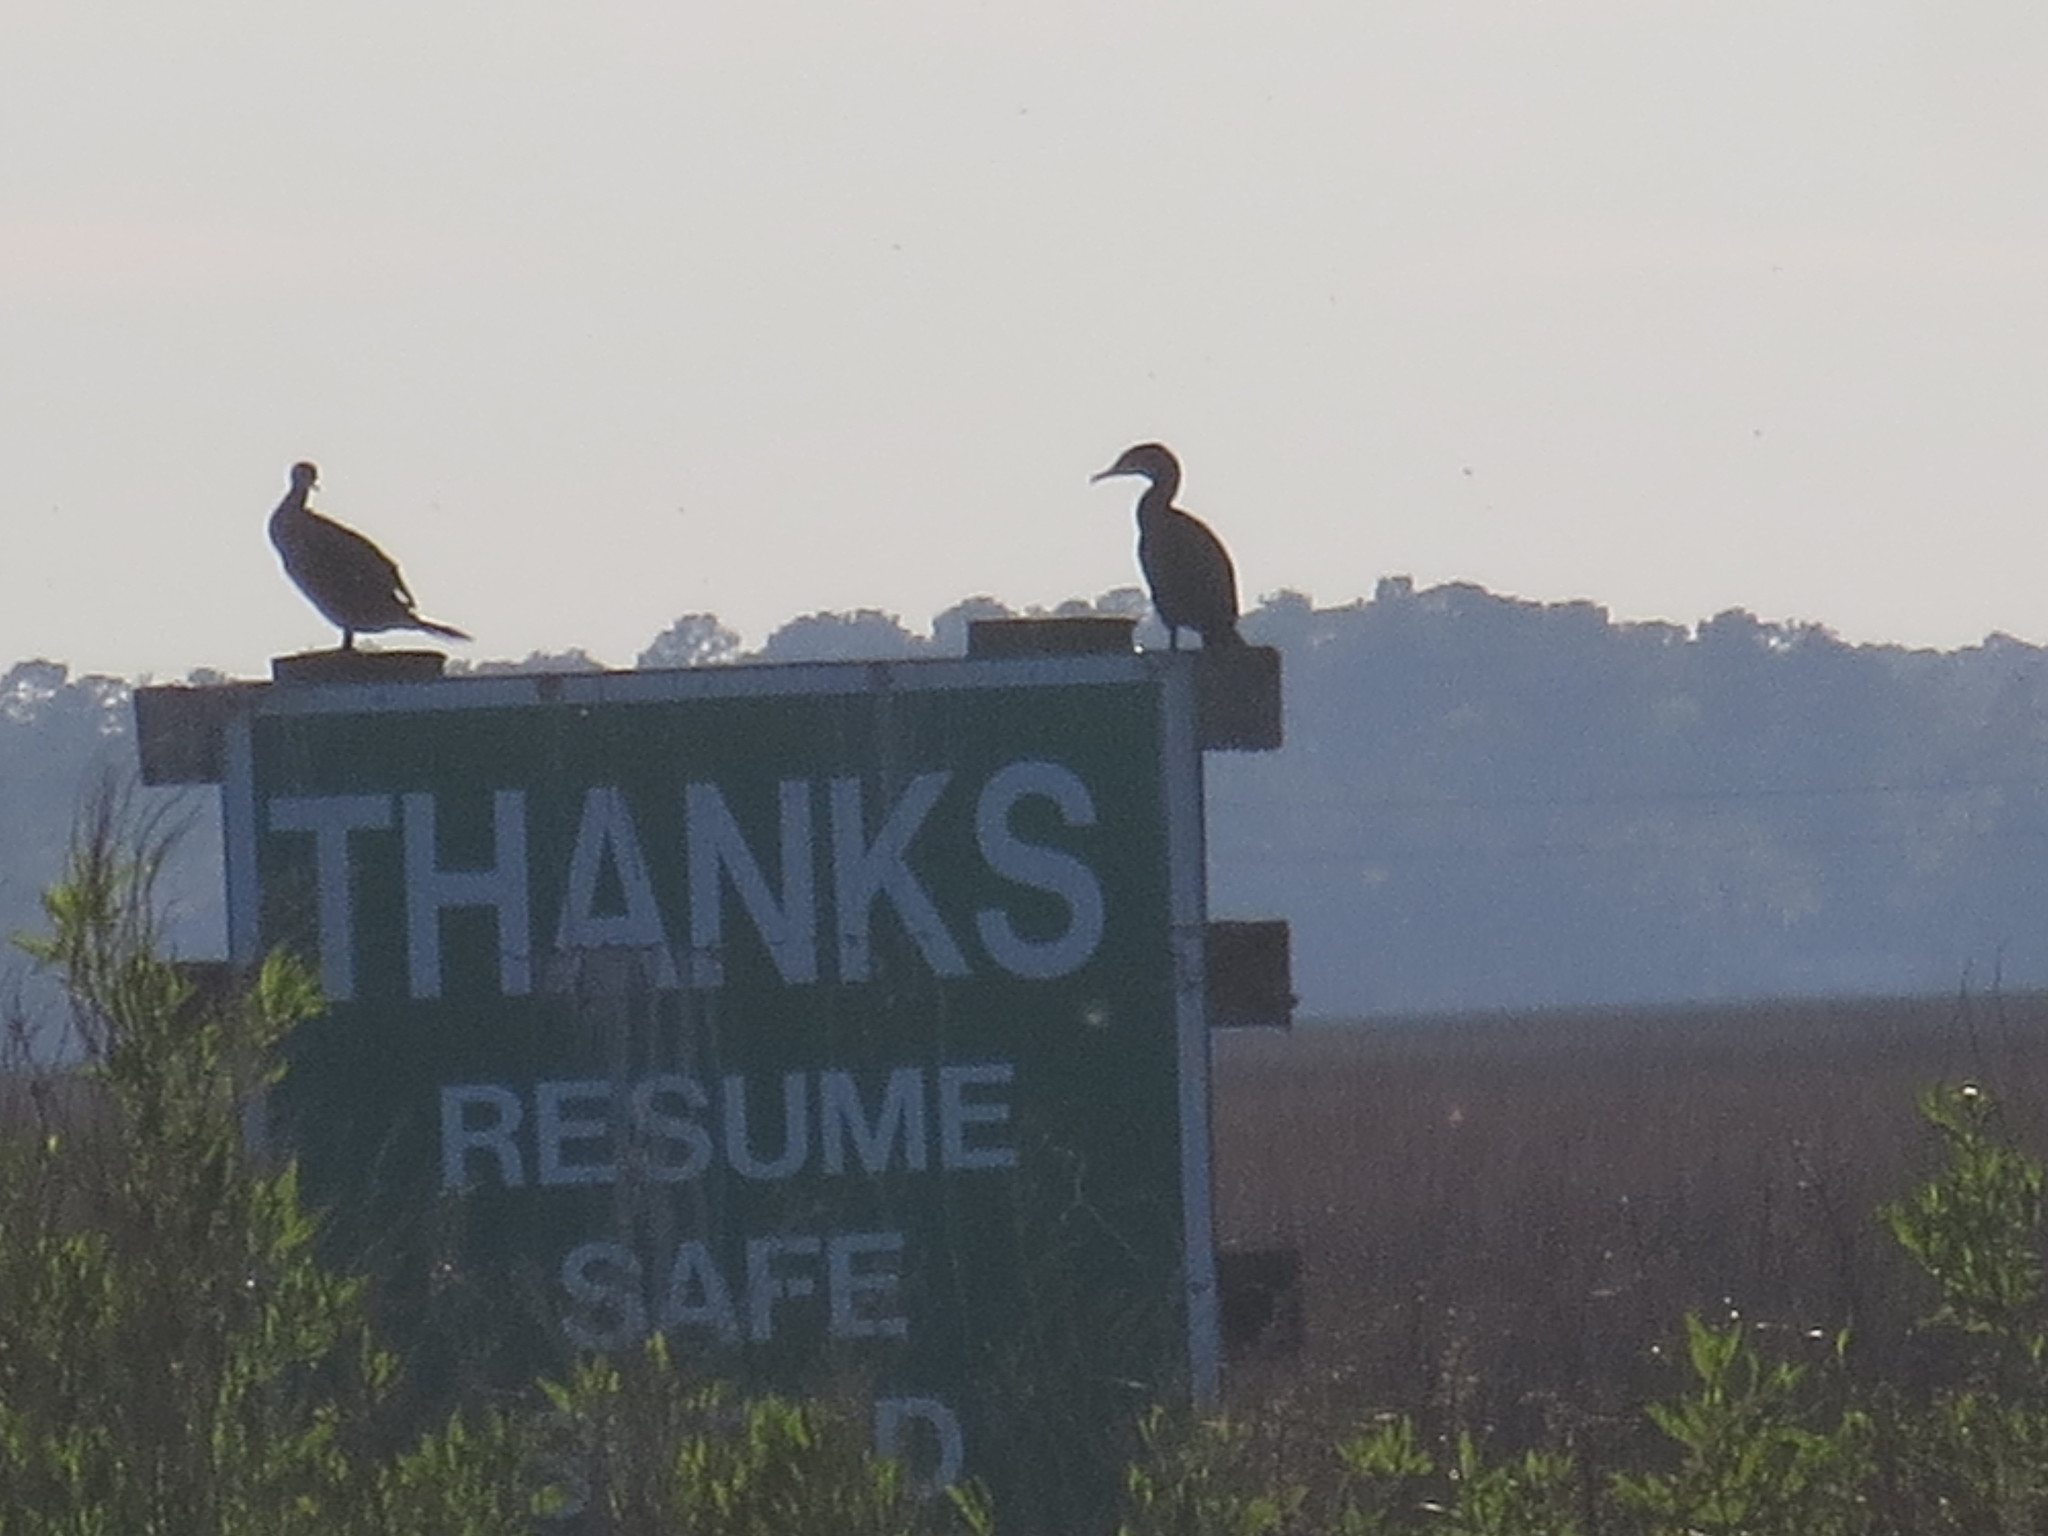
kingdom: Animalia
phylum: Chordata
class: Aves
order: Suliformes
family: Phalacrocoracidae
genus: Phalacrocorax
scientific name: Phalacrocorax auritus
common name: Double-crested cormorant
